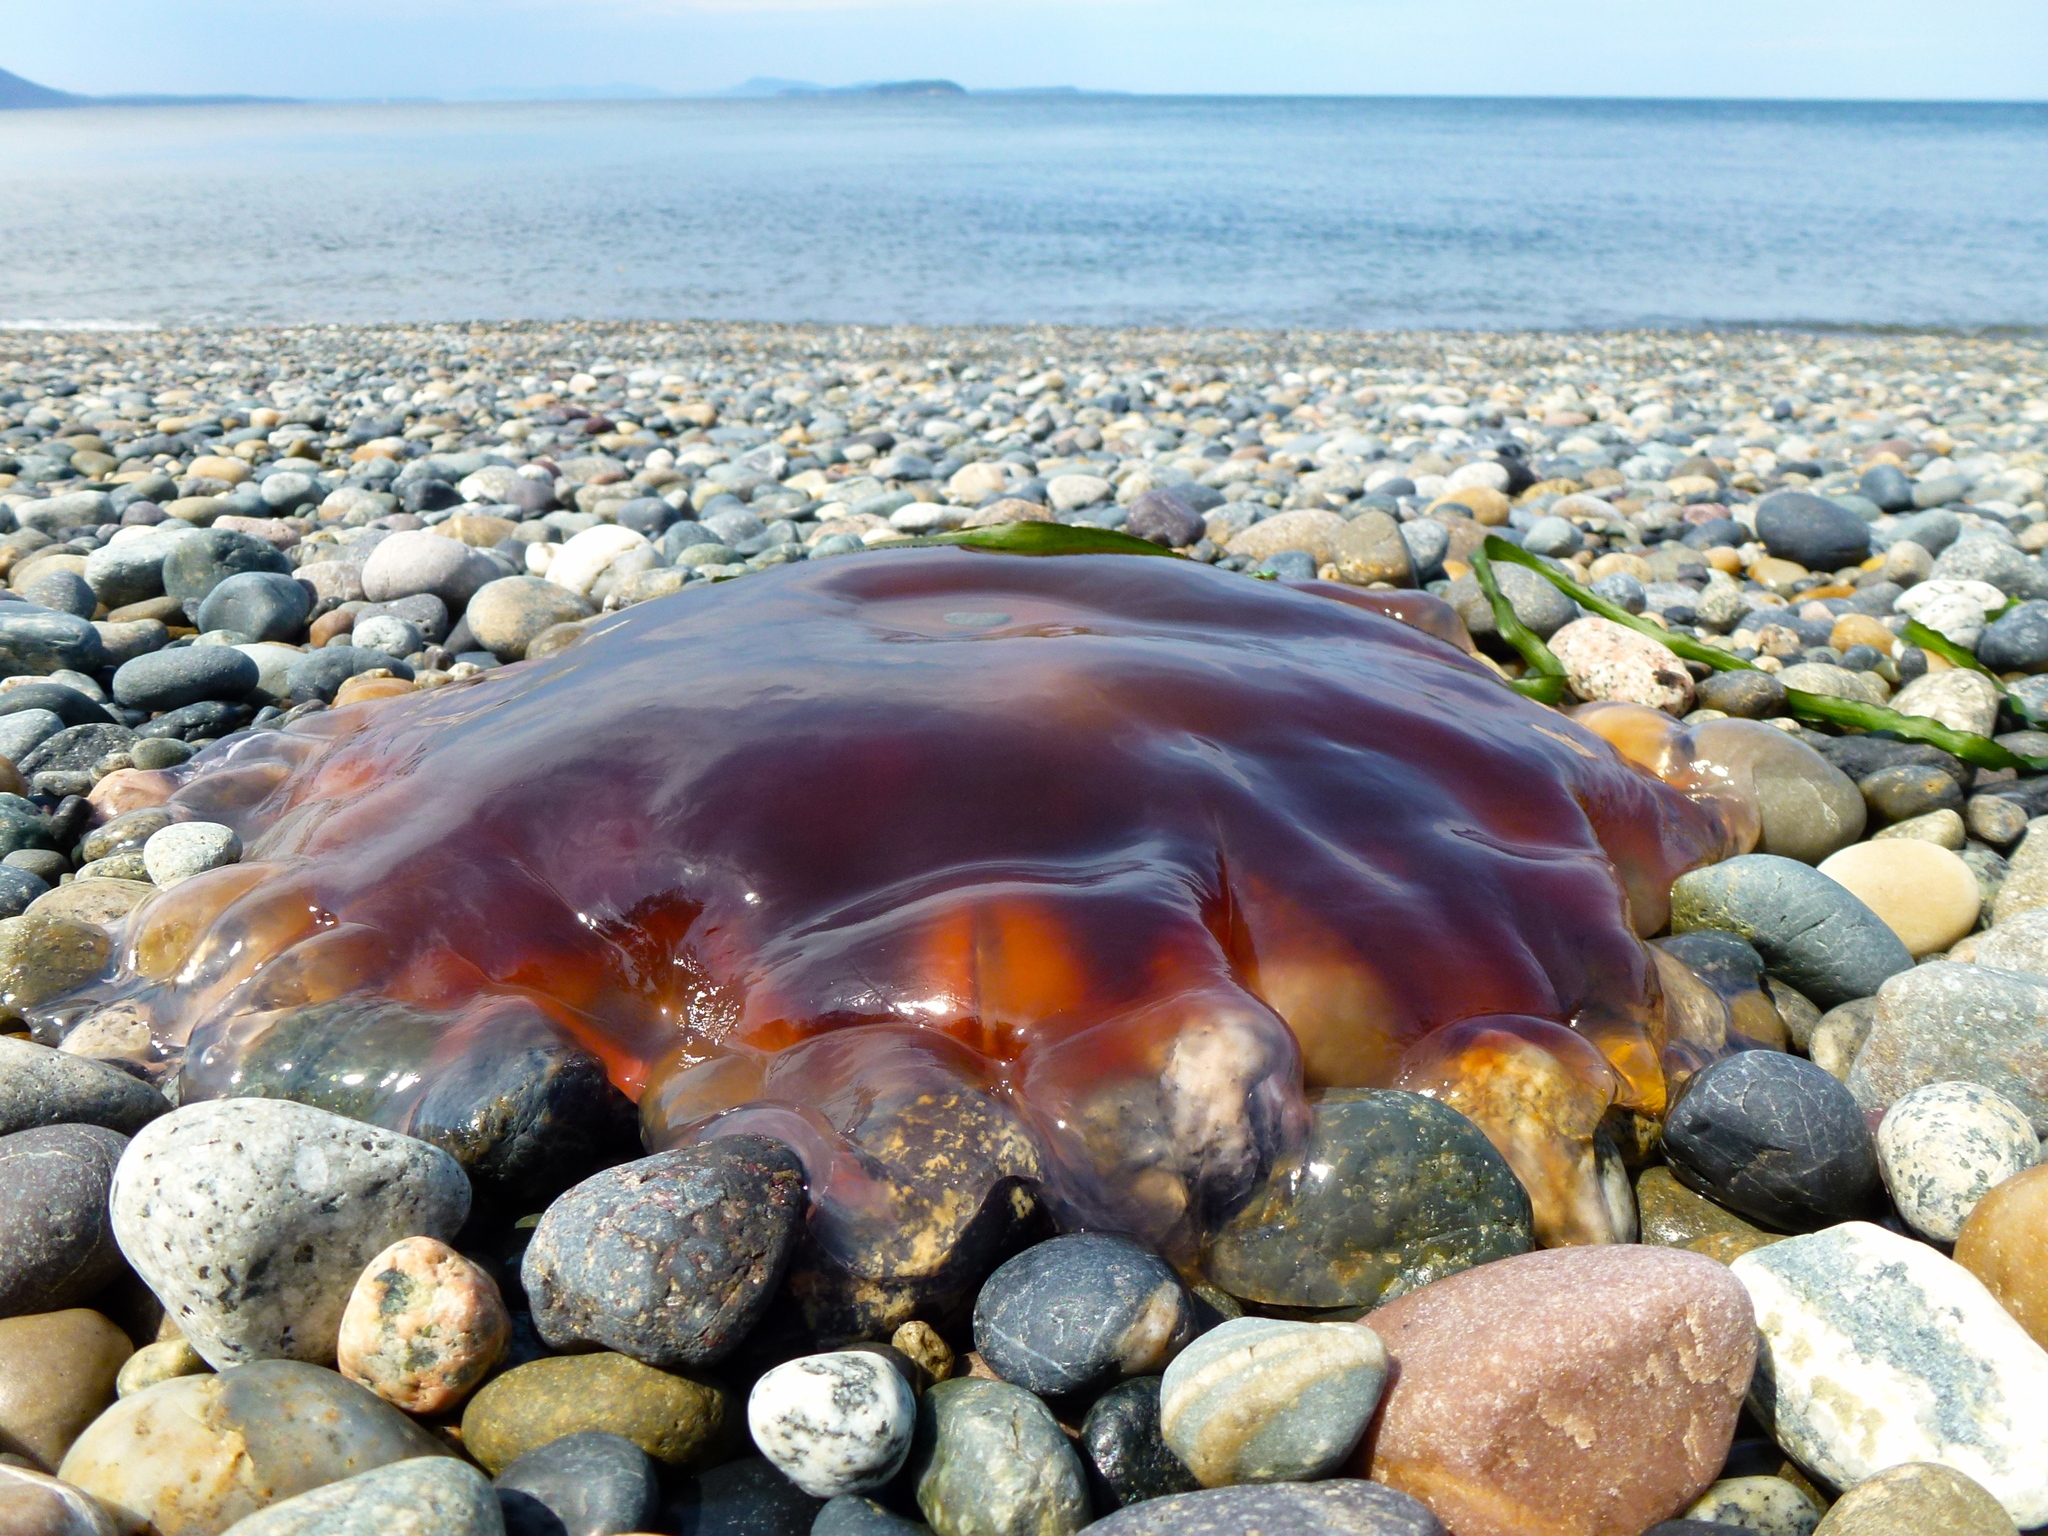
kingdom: Animalia
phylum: Cnidaria
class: Scyphozoa
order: Semaeostomeae
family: Cyaneidae
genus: Cyanea
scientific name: Cyanea ferruginea
